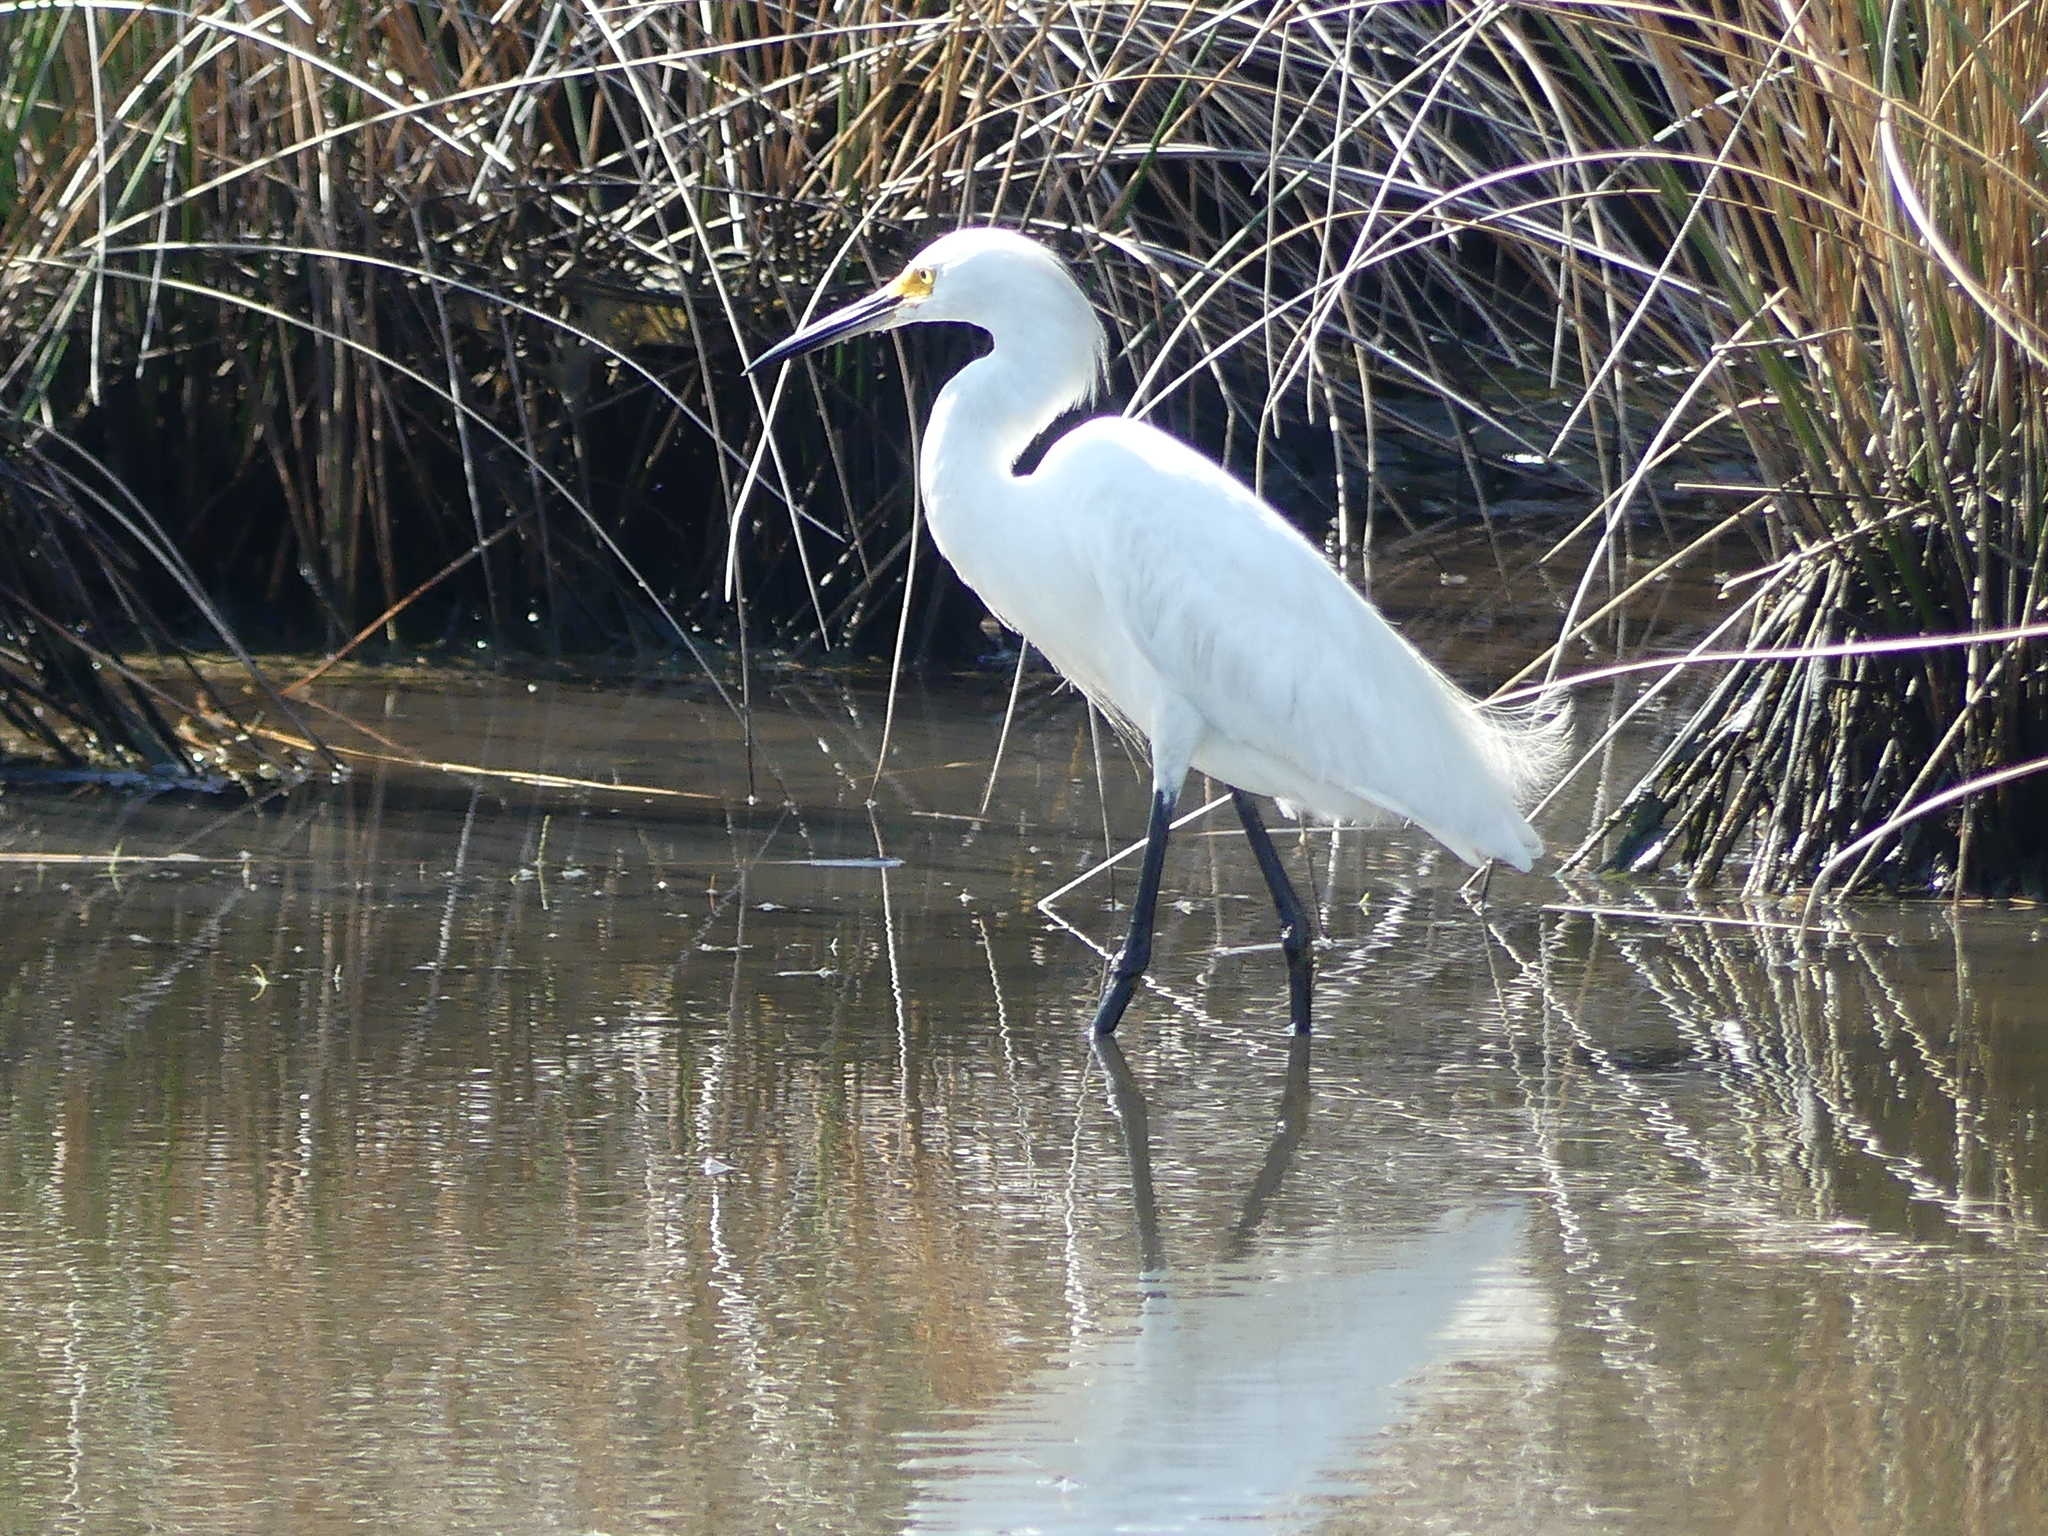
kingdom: Animalia
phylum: Chordata
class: Aves
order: Pelecaniformes
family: Ardeidae
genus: Egretta
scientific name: Egretta thula
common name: Snowy egret
